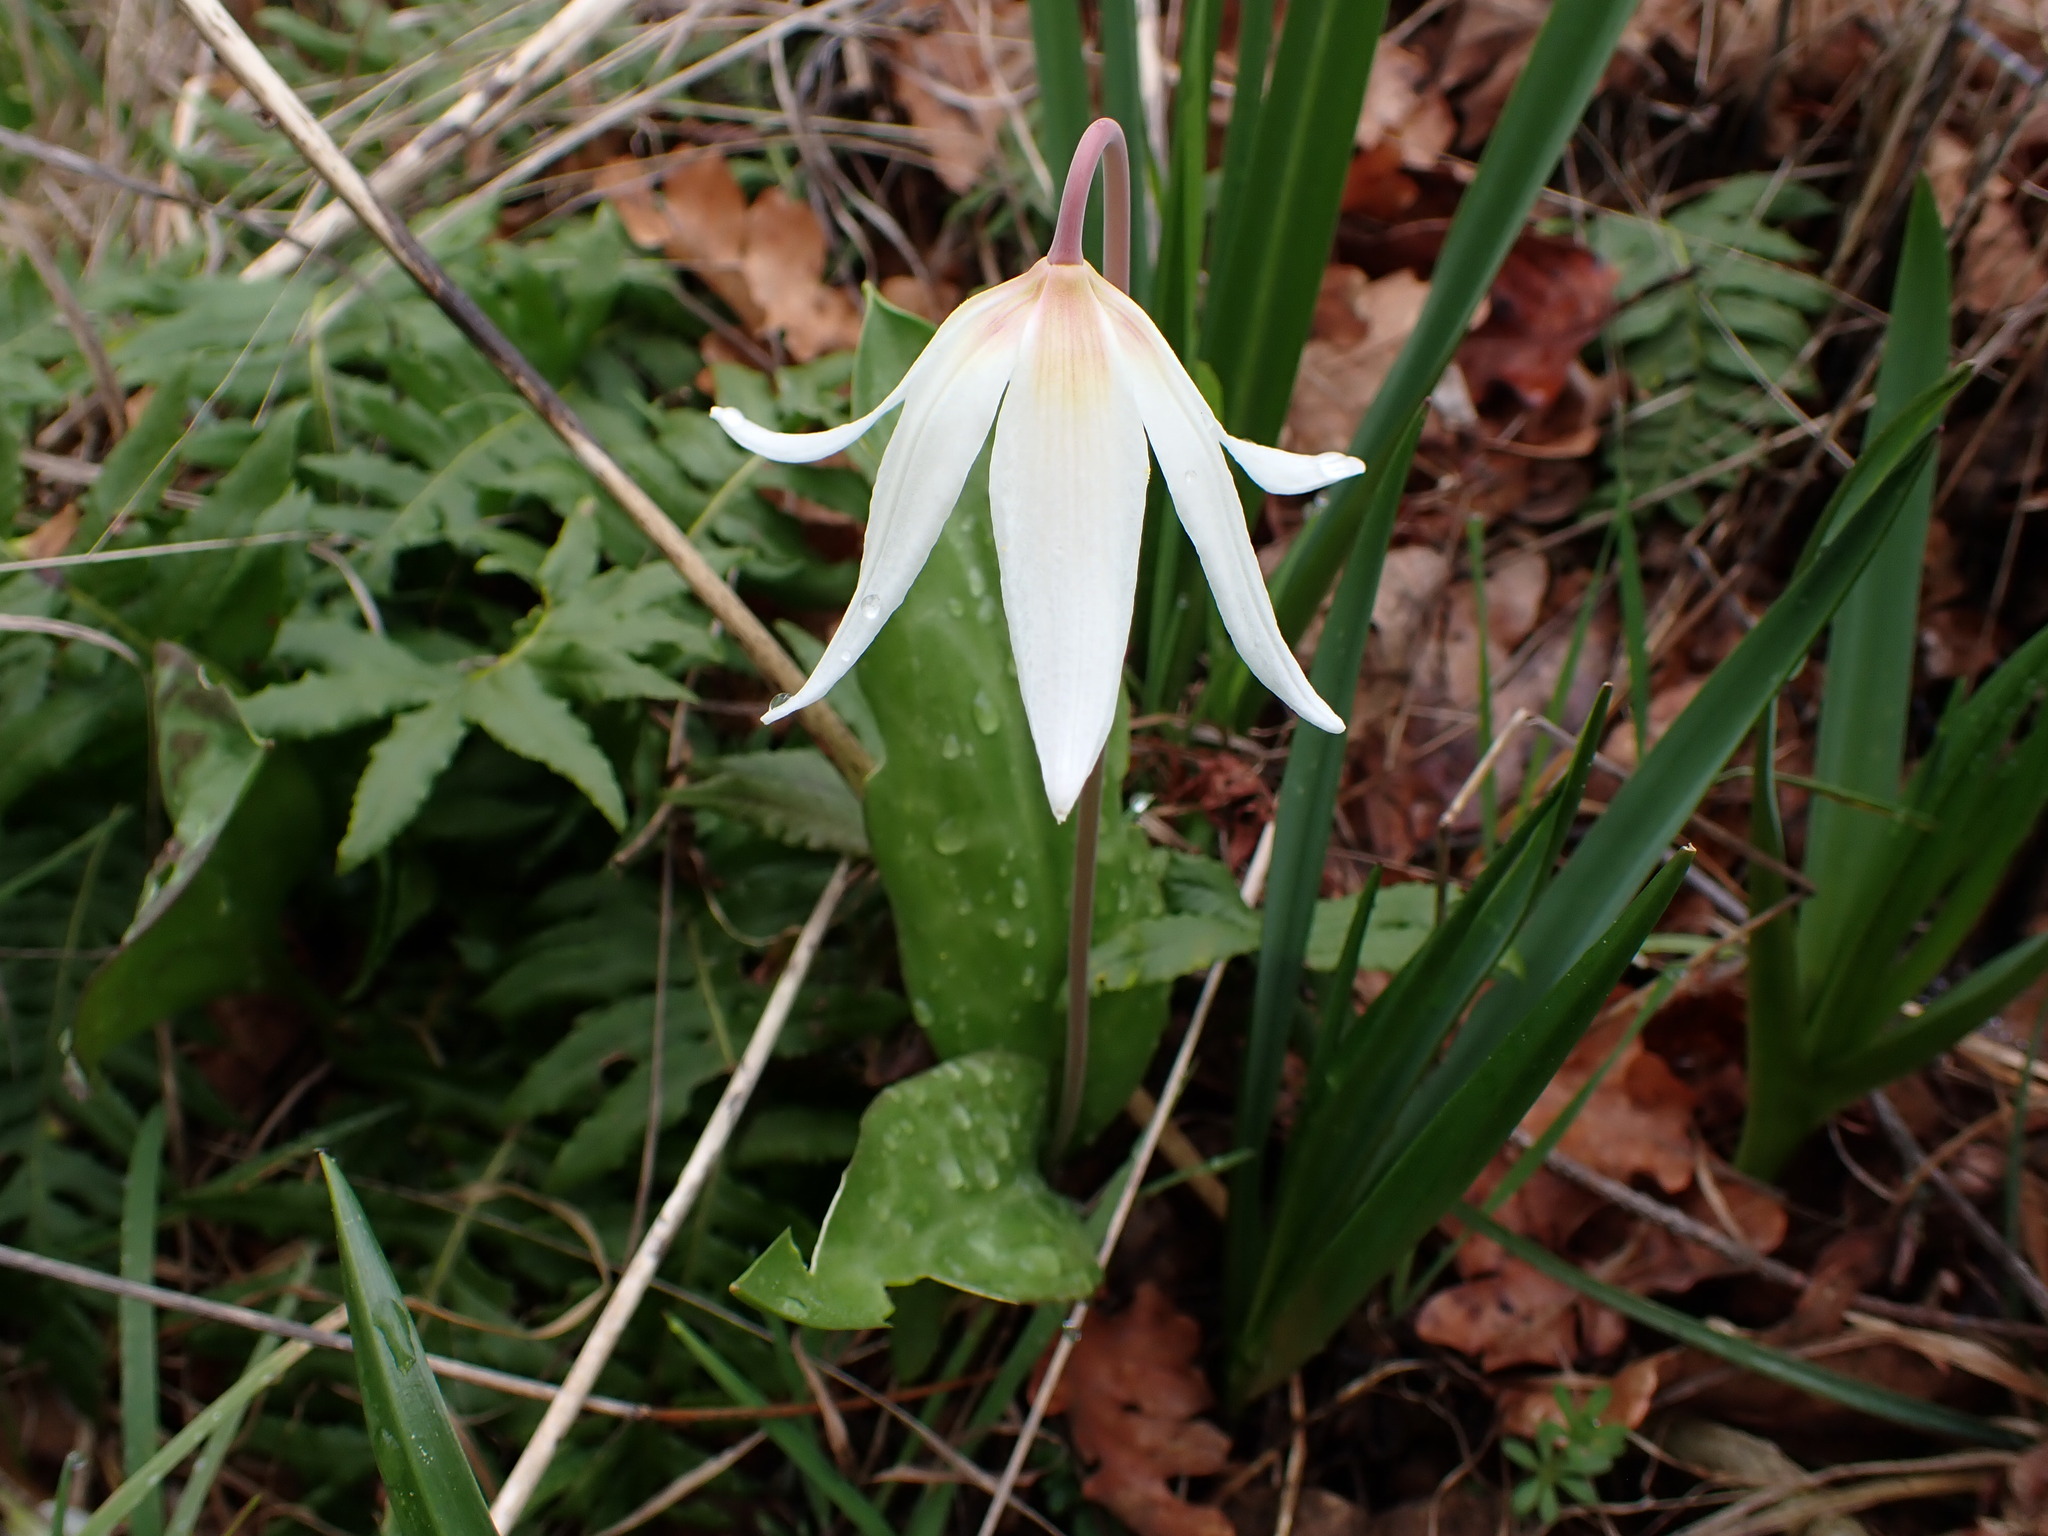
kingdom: Plantae
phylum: Tracheophyta
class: Liliopsida
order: Liliales
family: Liliaceae
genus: Erythronium
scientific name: Erythronium oregonum
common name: Giant adder's-tongue
